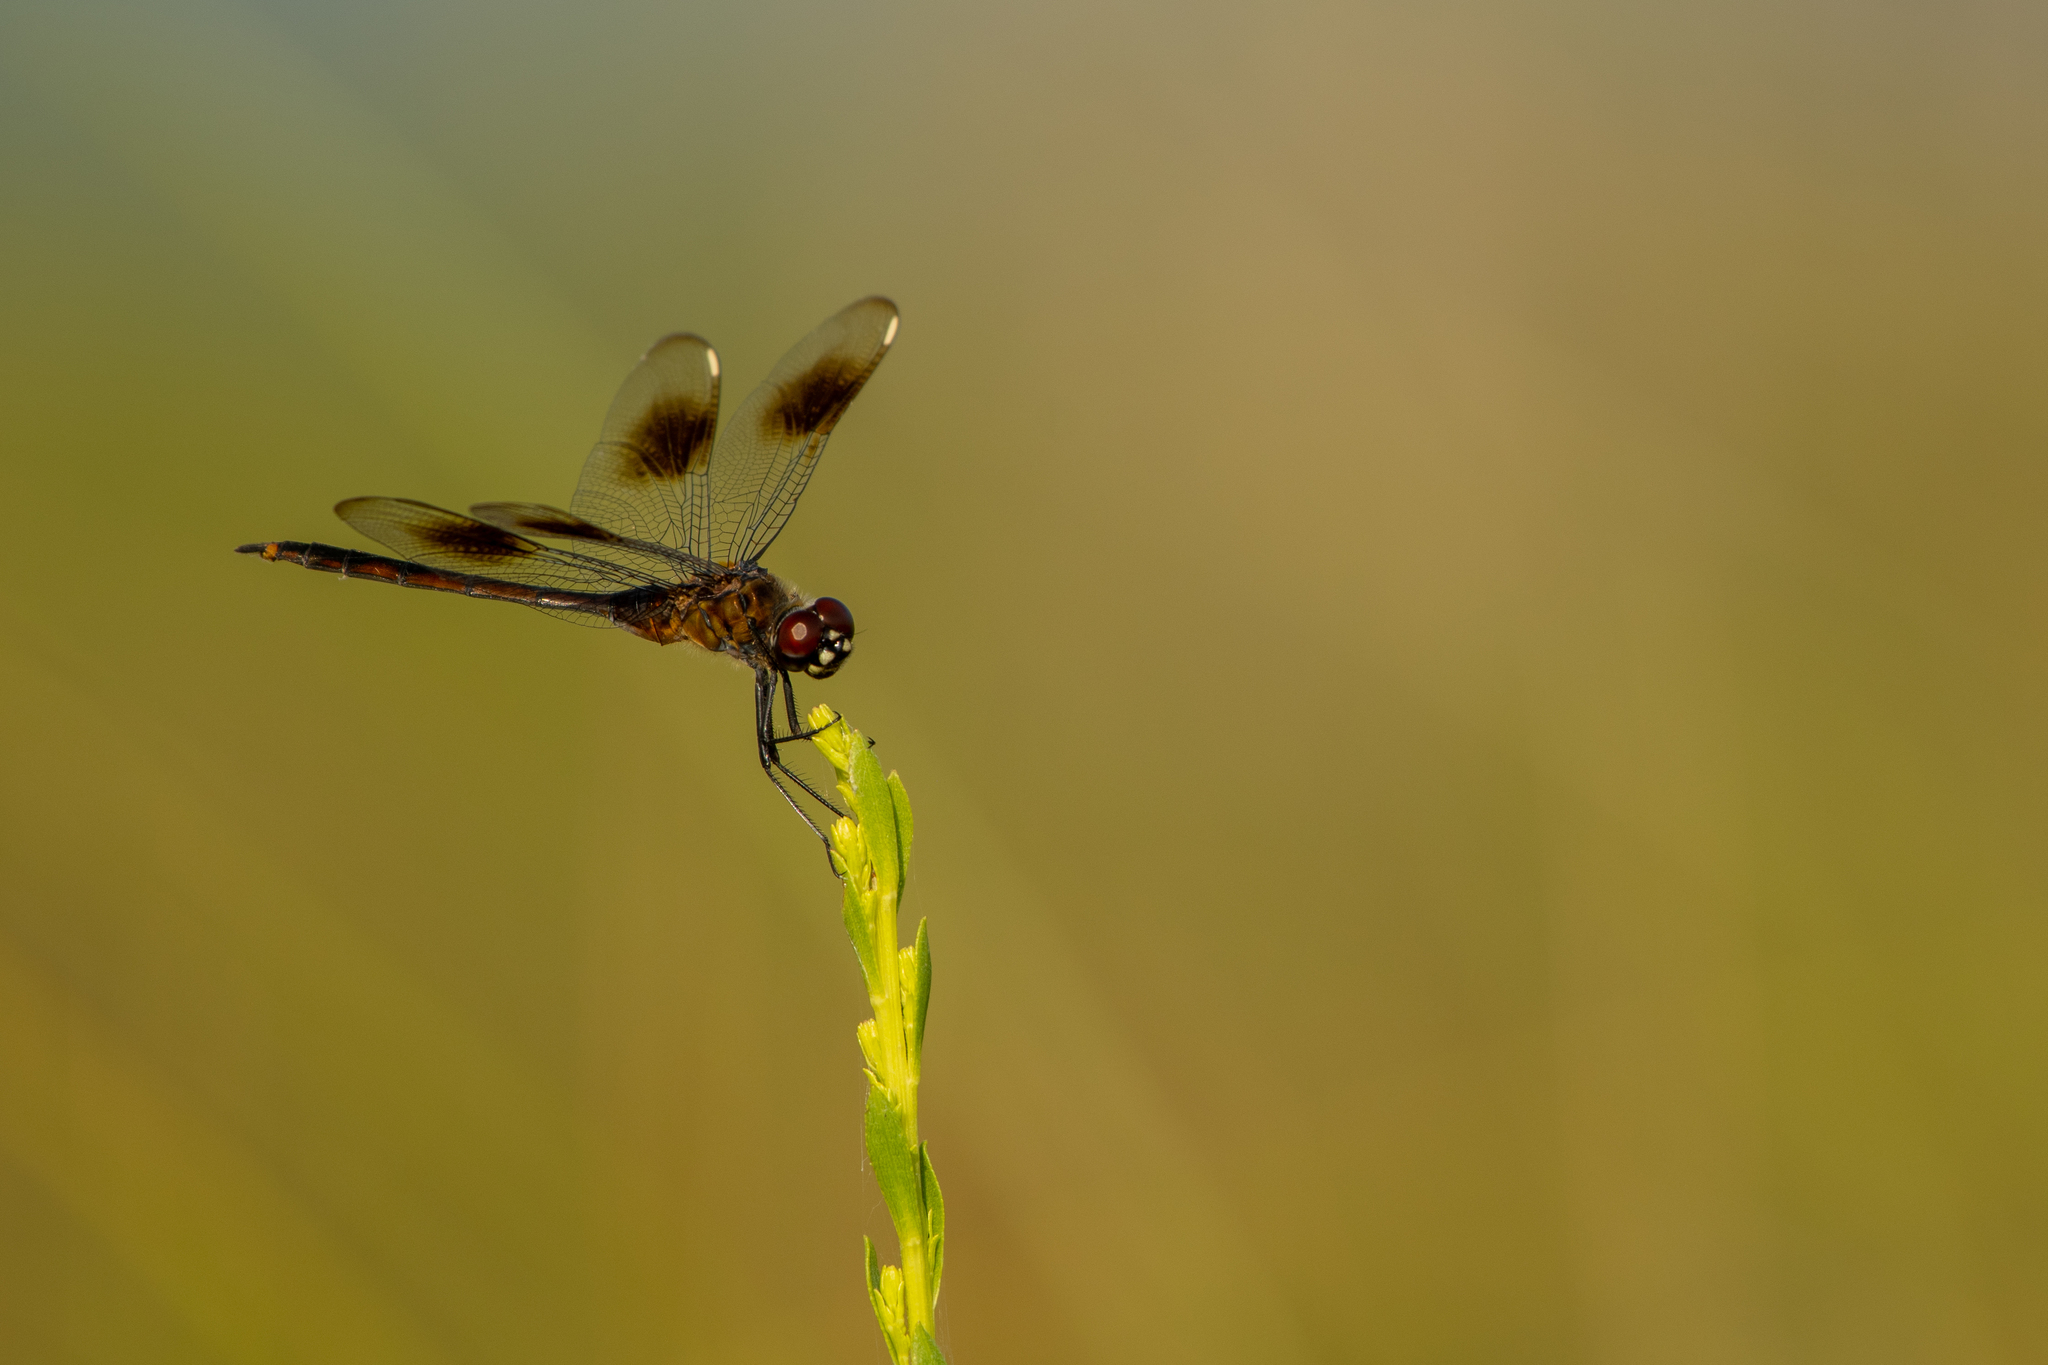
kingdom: Animalia
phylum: Arthropoda
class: Insecta
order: Odonata
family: Libellulidae
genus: Brachymesia
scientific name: Brachymesia gravida
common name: Four-spotted pennant
